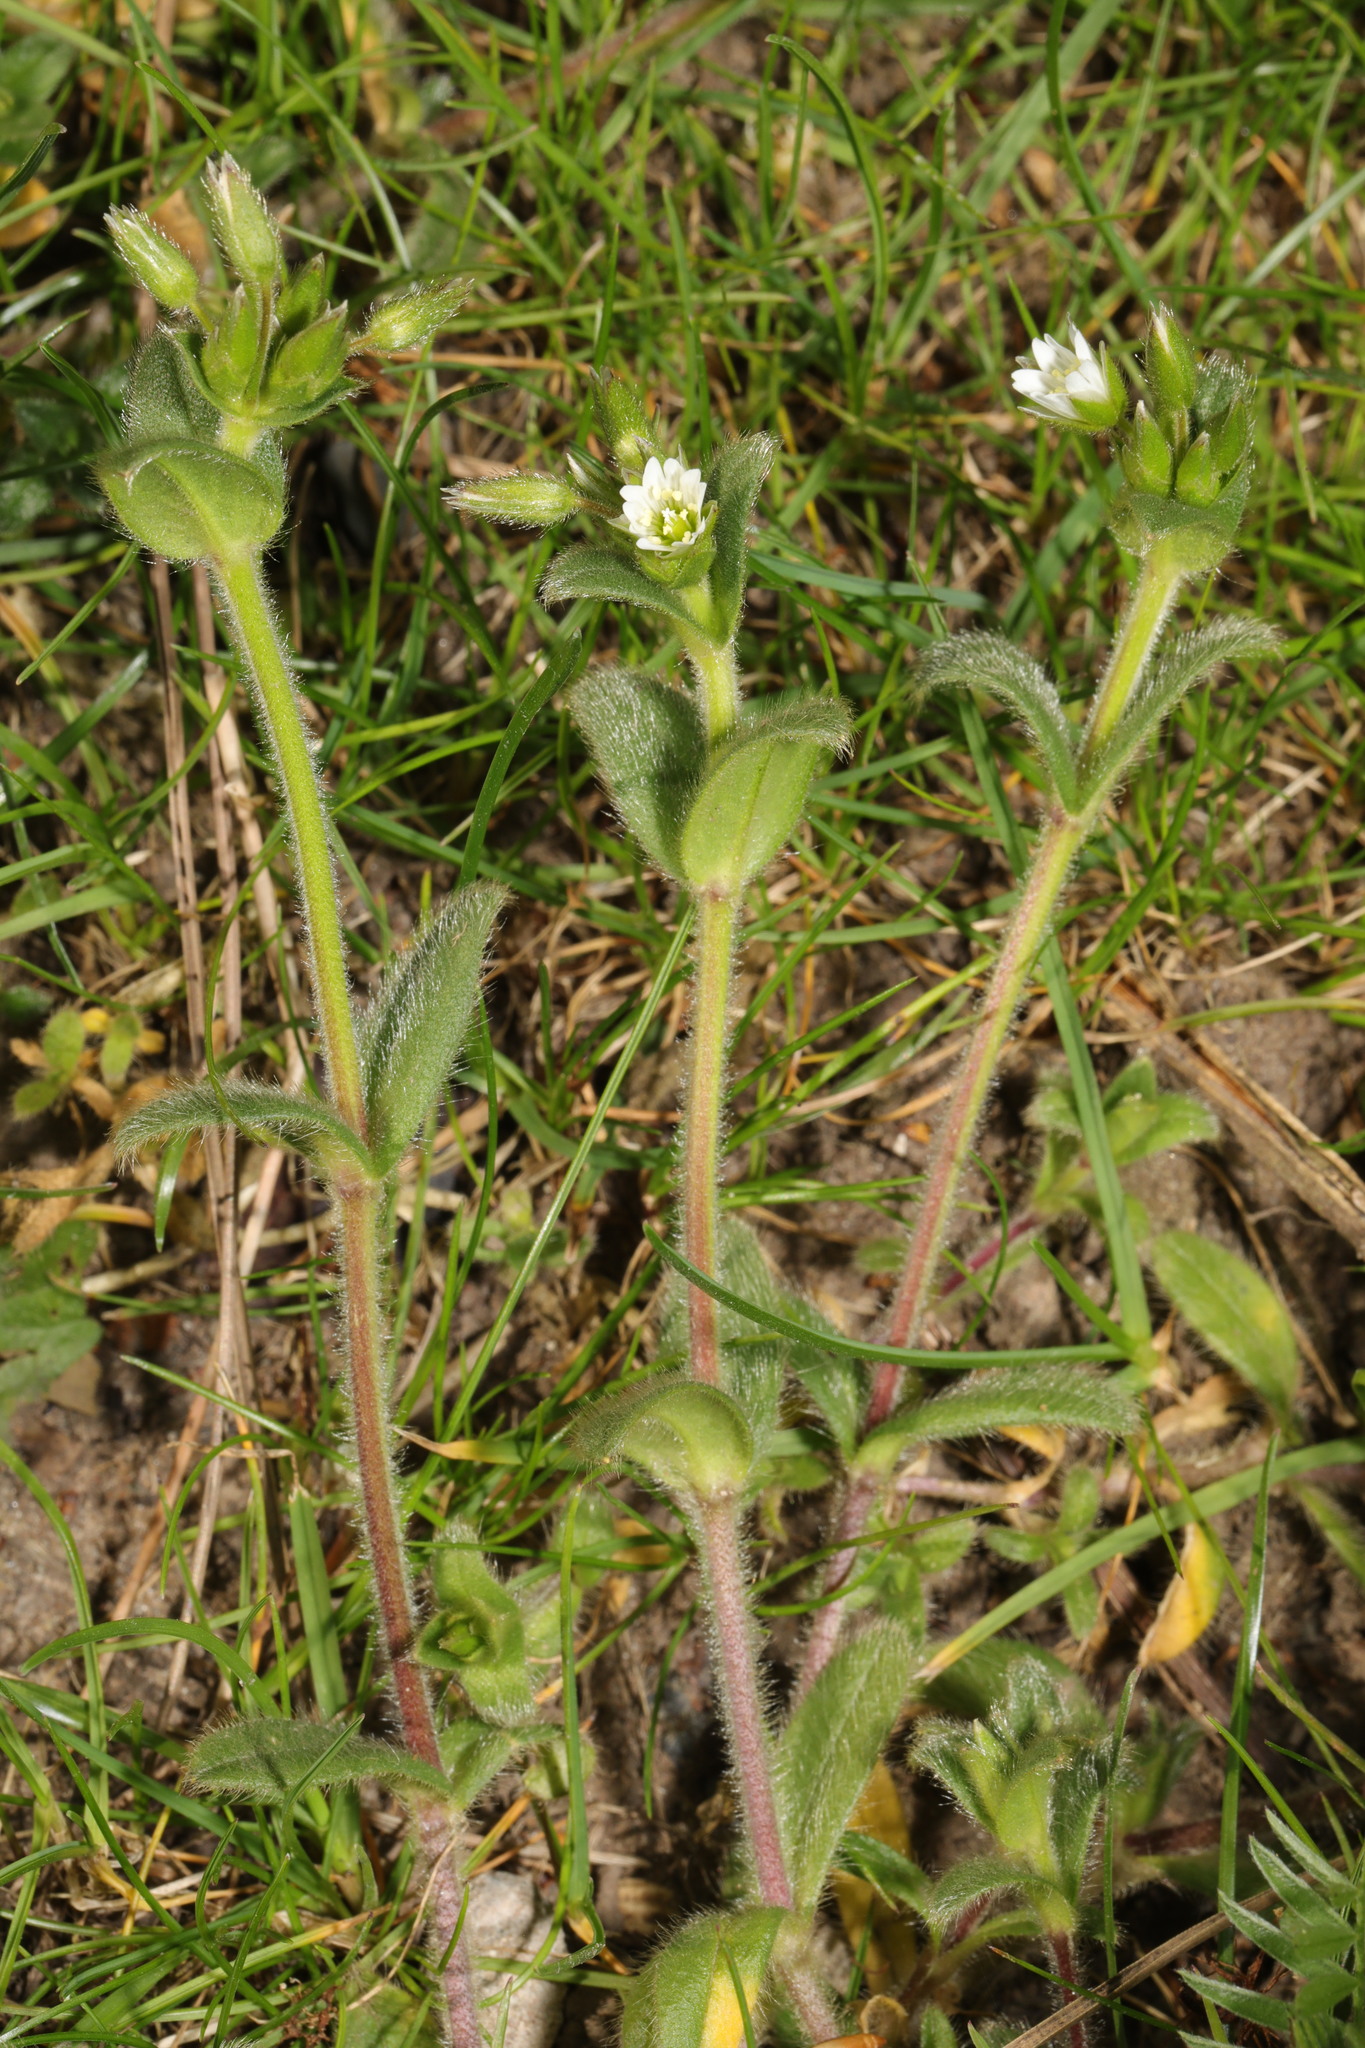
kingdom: Plantae
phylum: Tracheophyta
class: Magnoliopsida
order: Caryophyllales
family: Caryophyllaceae
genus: Cerastium
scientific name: Cerastium fontanum
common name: Common mouse-ear
